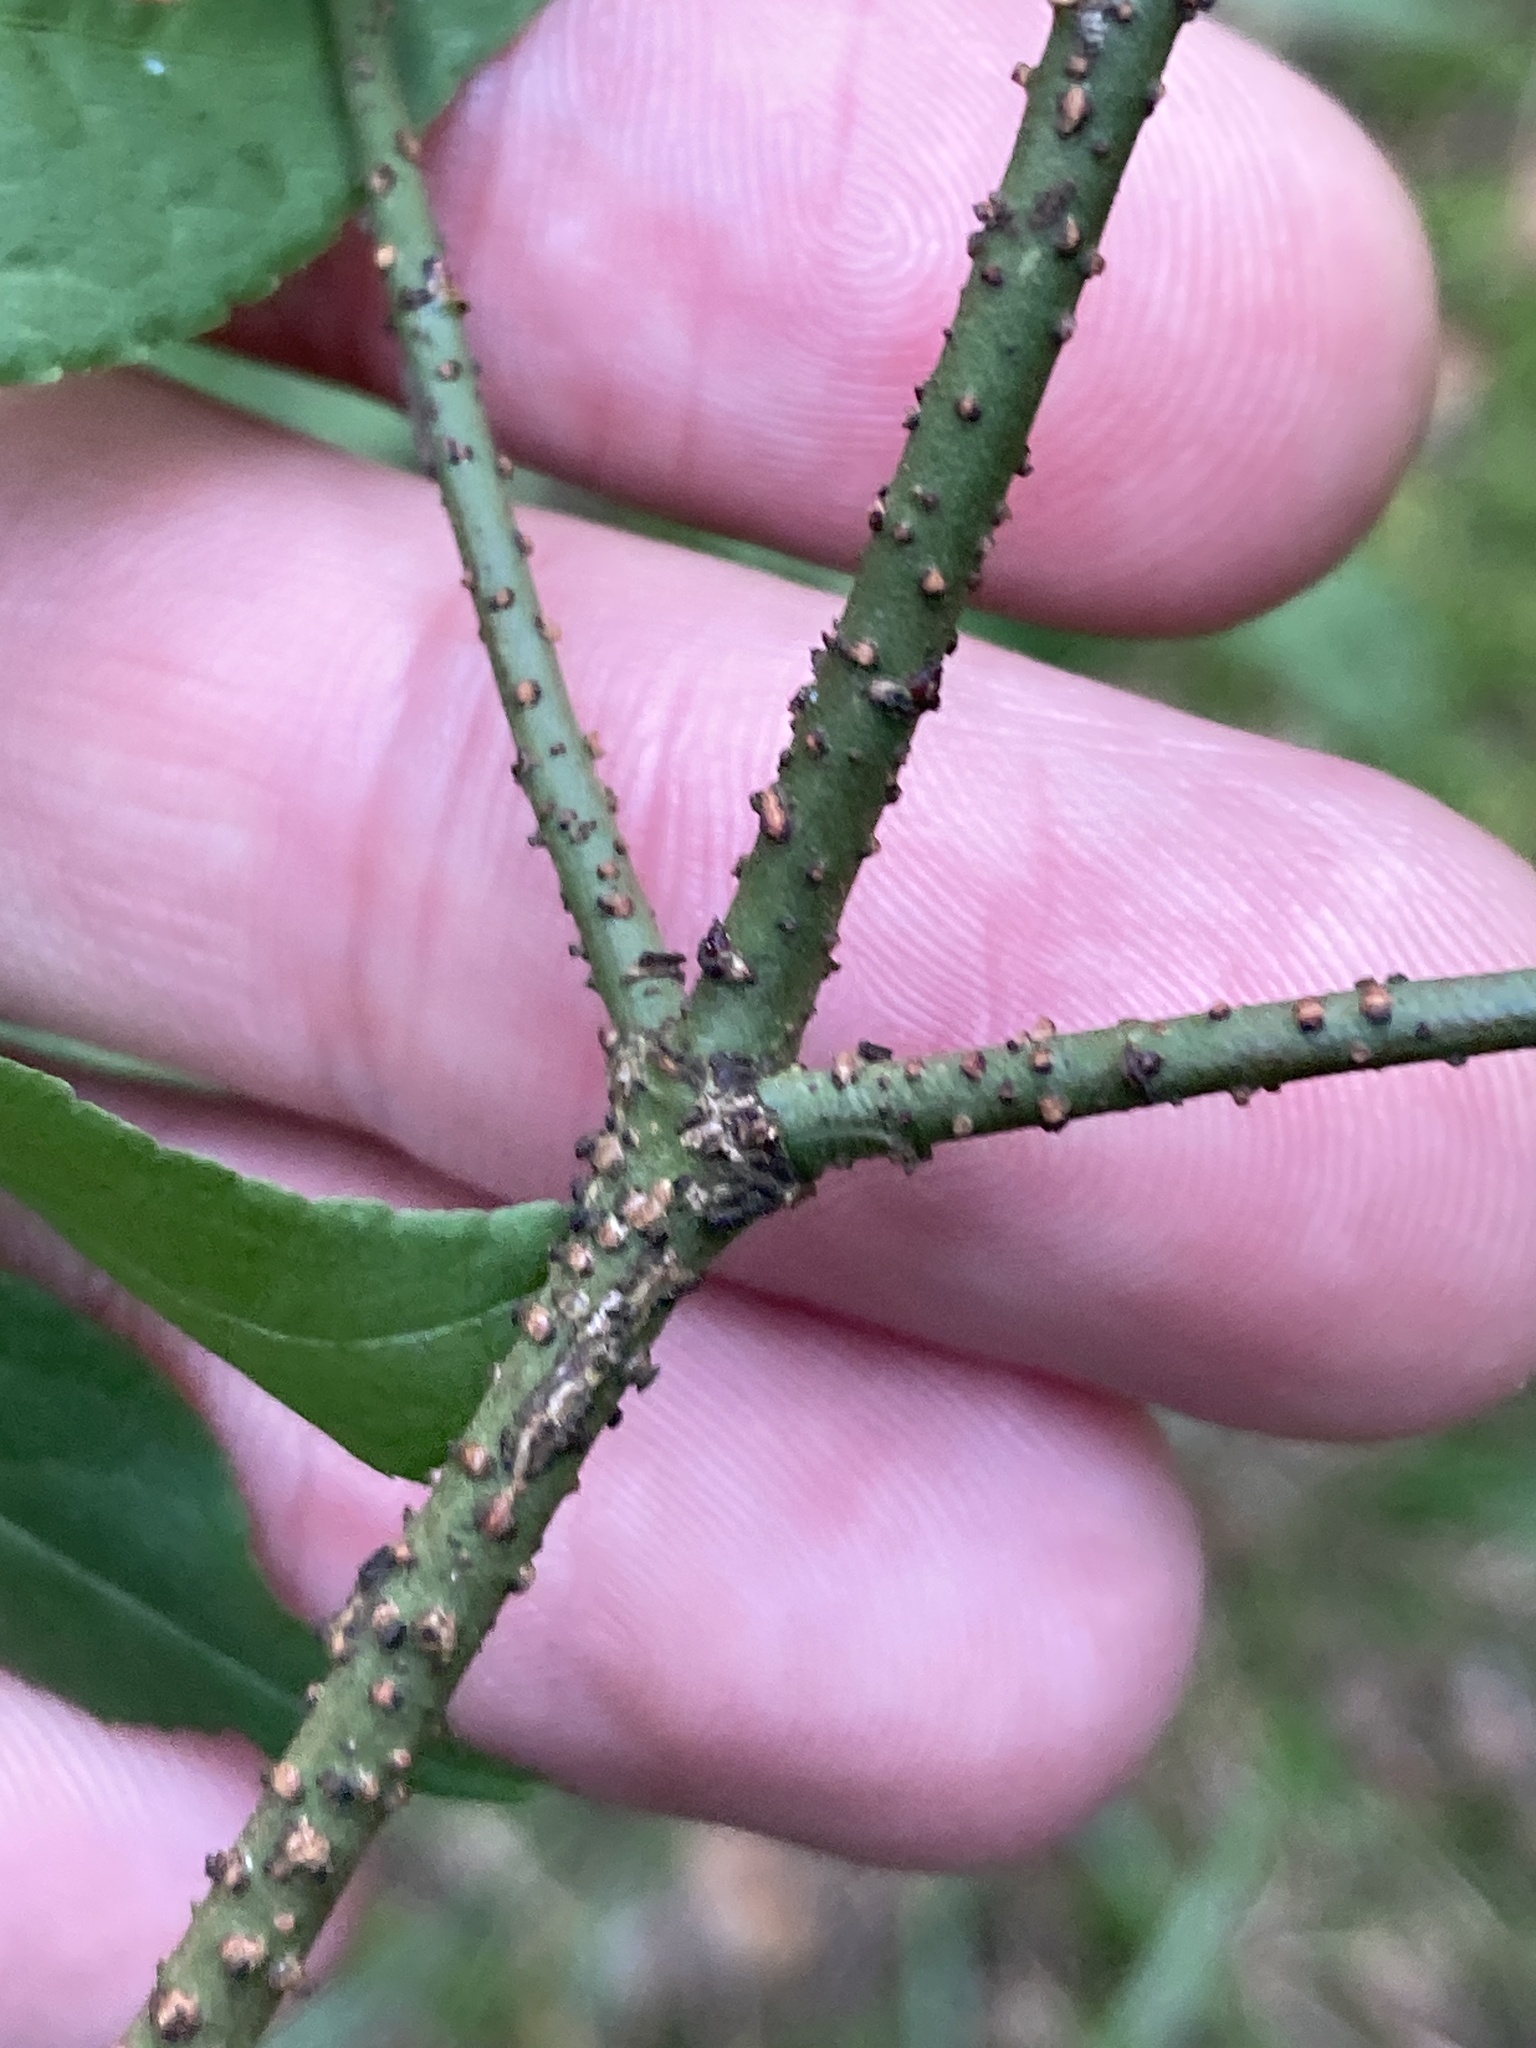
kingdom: Plantae
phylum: Tracheophyta
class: Magnoliopsida
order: Celastrales
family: Celastraceae
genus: Euonymus
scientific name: Euonymus verrucosus
